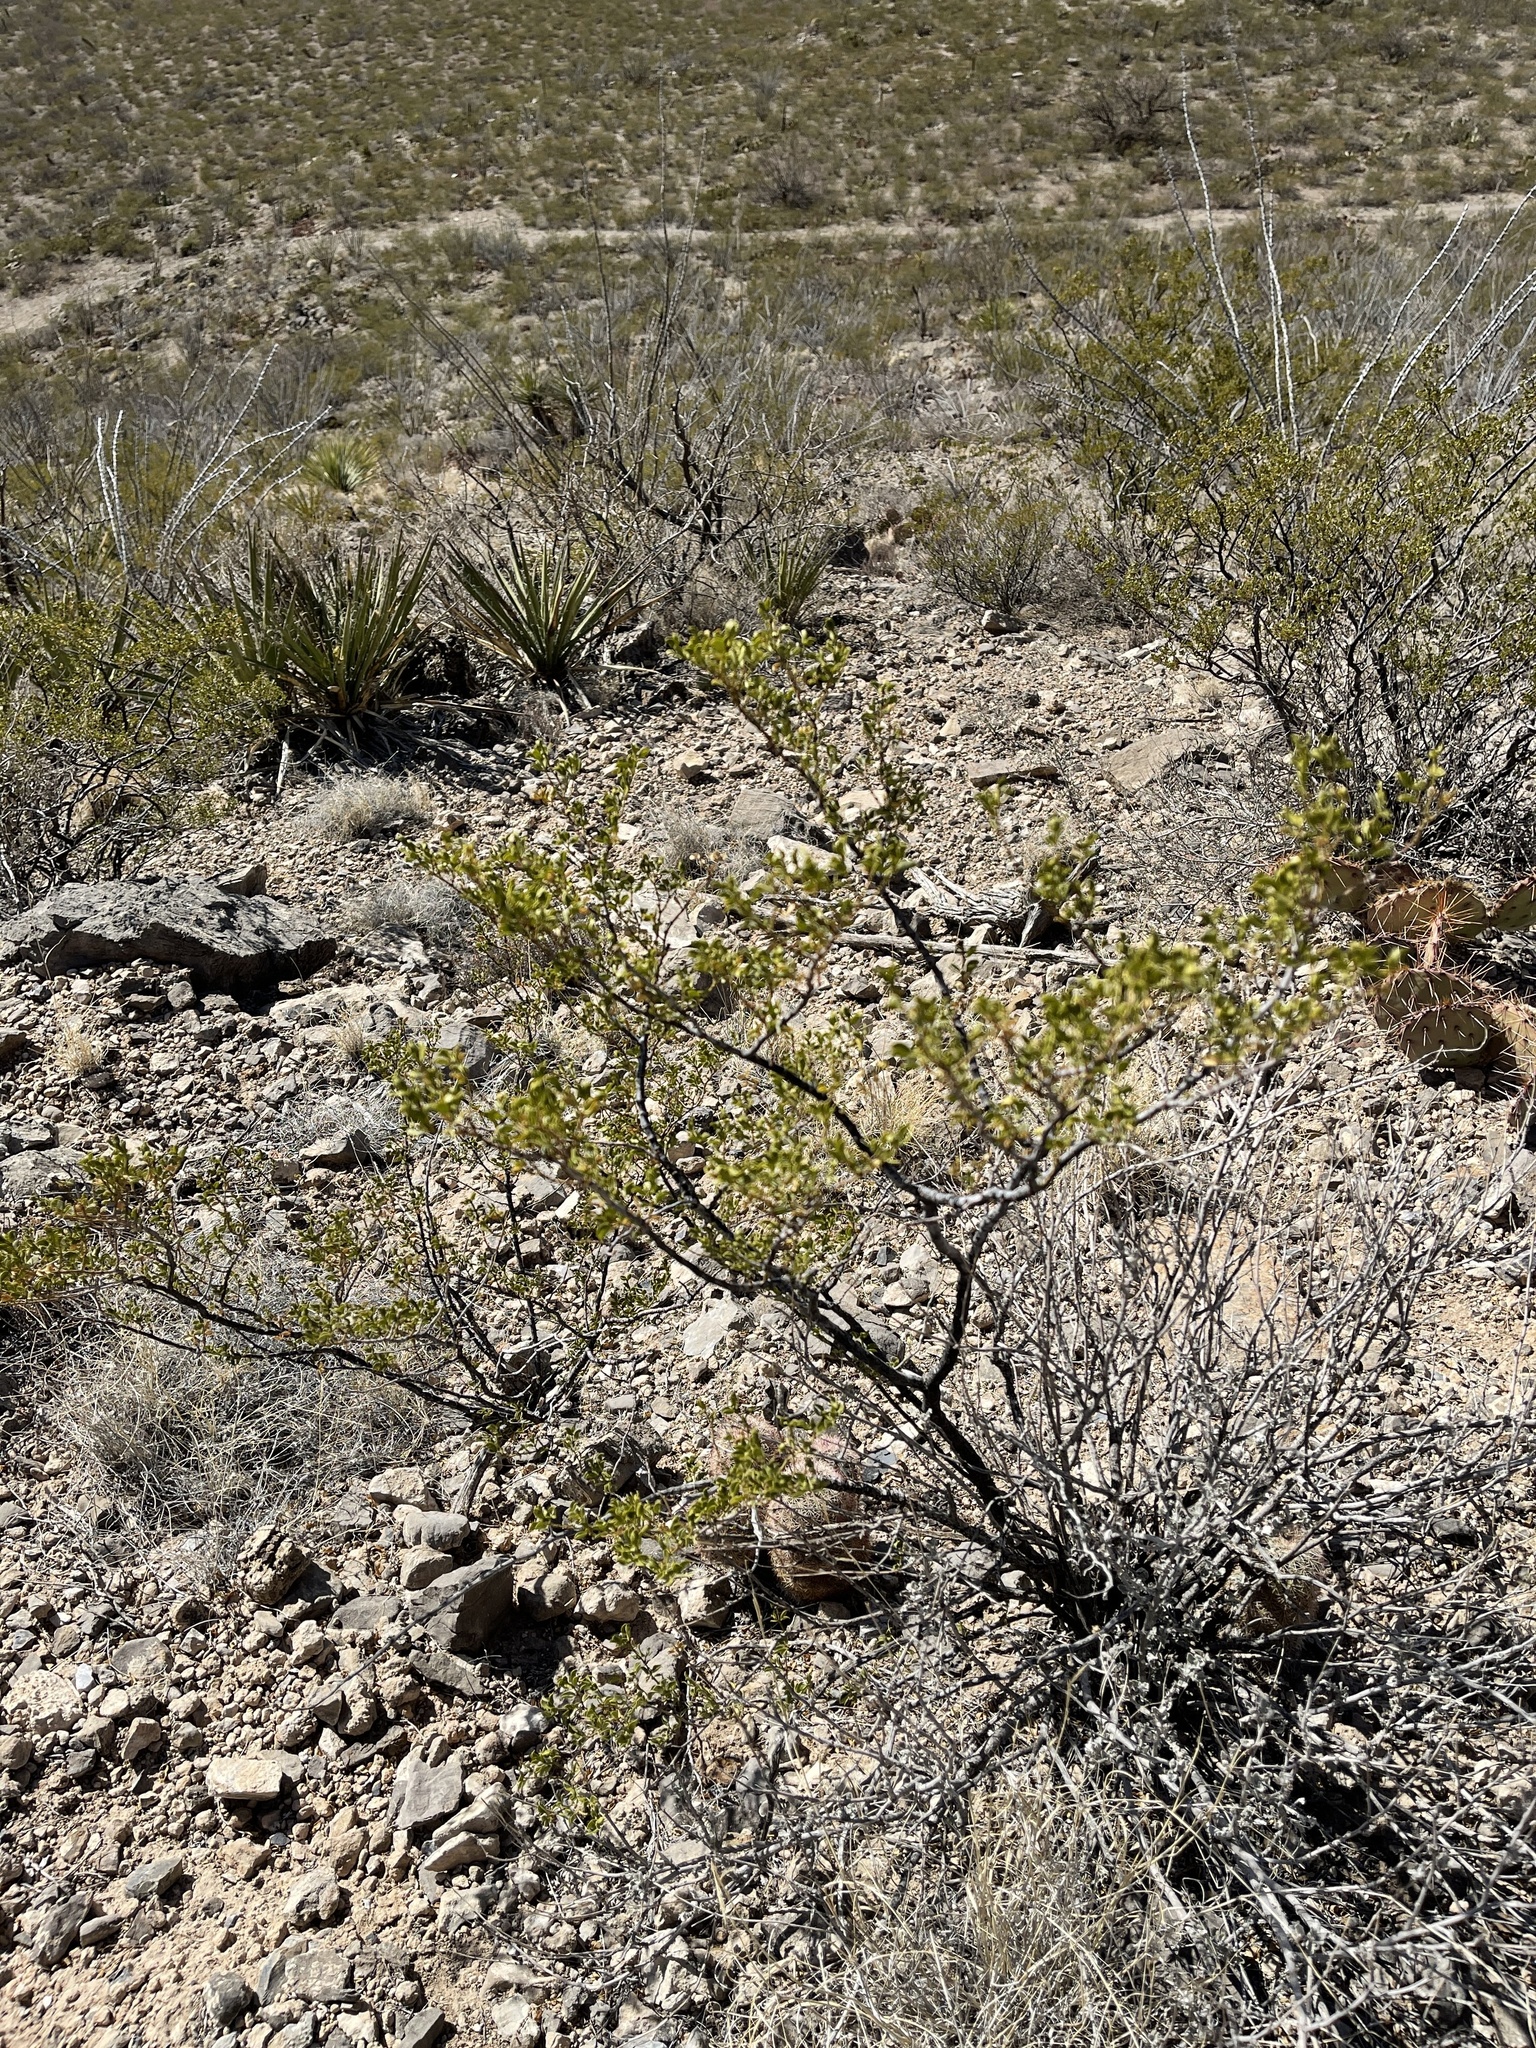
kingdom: Plantae
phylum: Tracheophyta
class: Magnoliopsida
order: Zygophyllales
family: Zygophyllaceae
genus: Larrea
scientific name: Larrea tridentata
